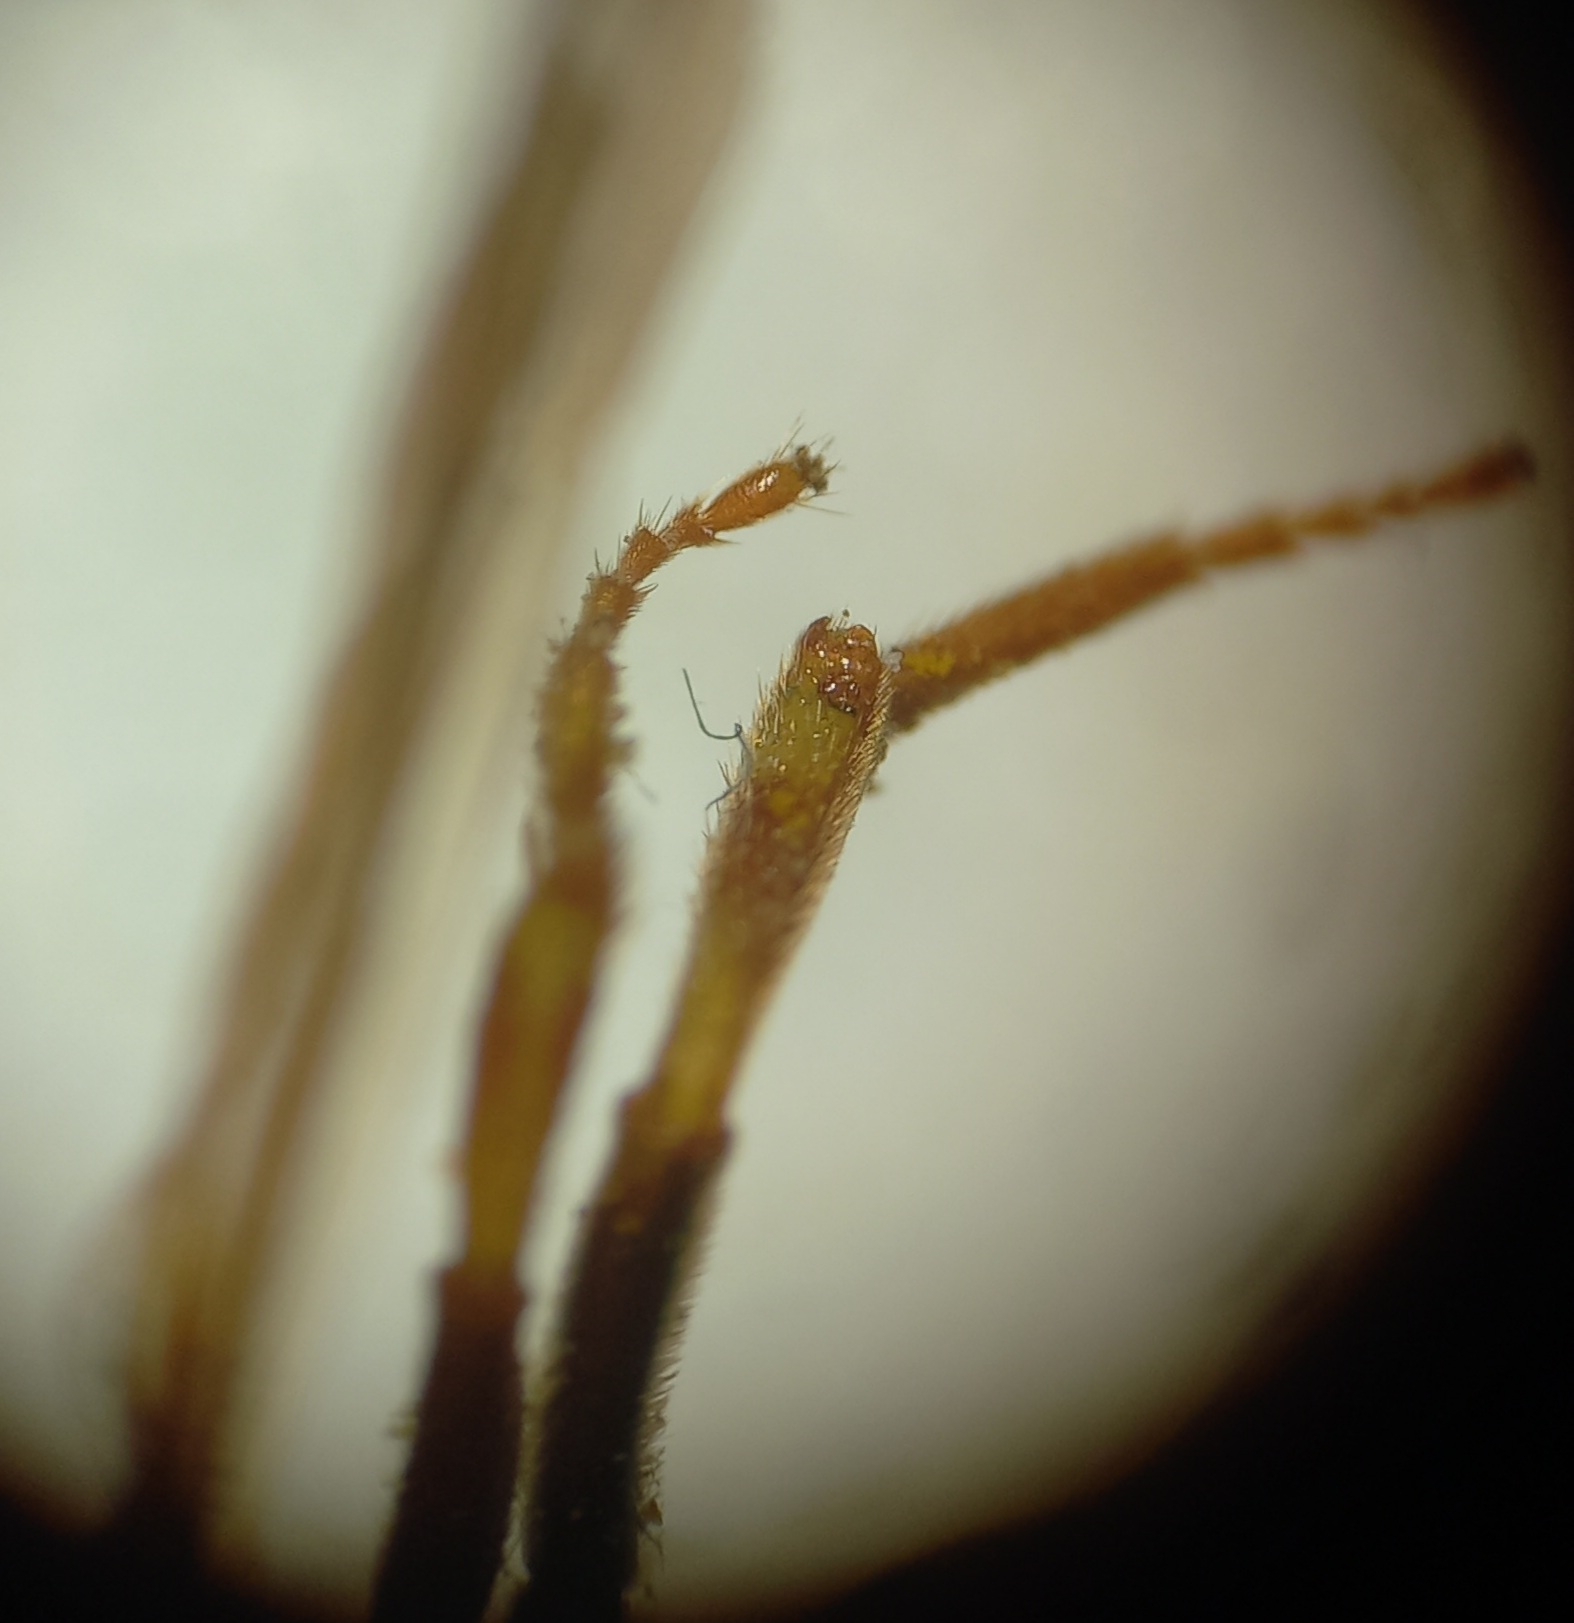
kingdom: Animalia
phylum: Arthropoda
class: Insecta
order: Hymenoptera
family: Apidae
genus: Nomada
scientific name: Nomada goodeniana
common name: Gooden's nomad bee
